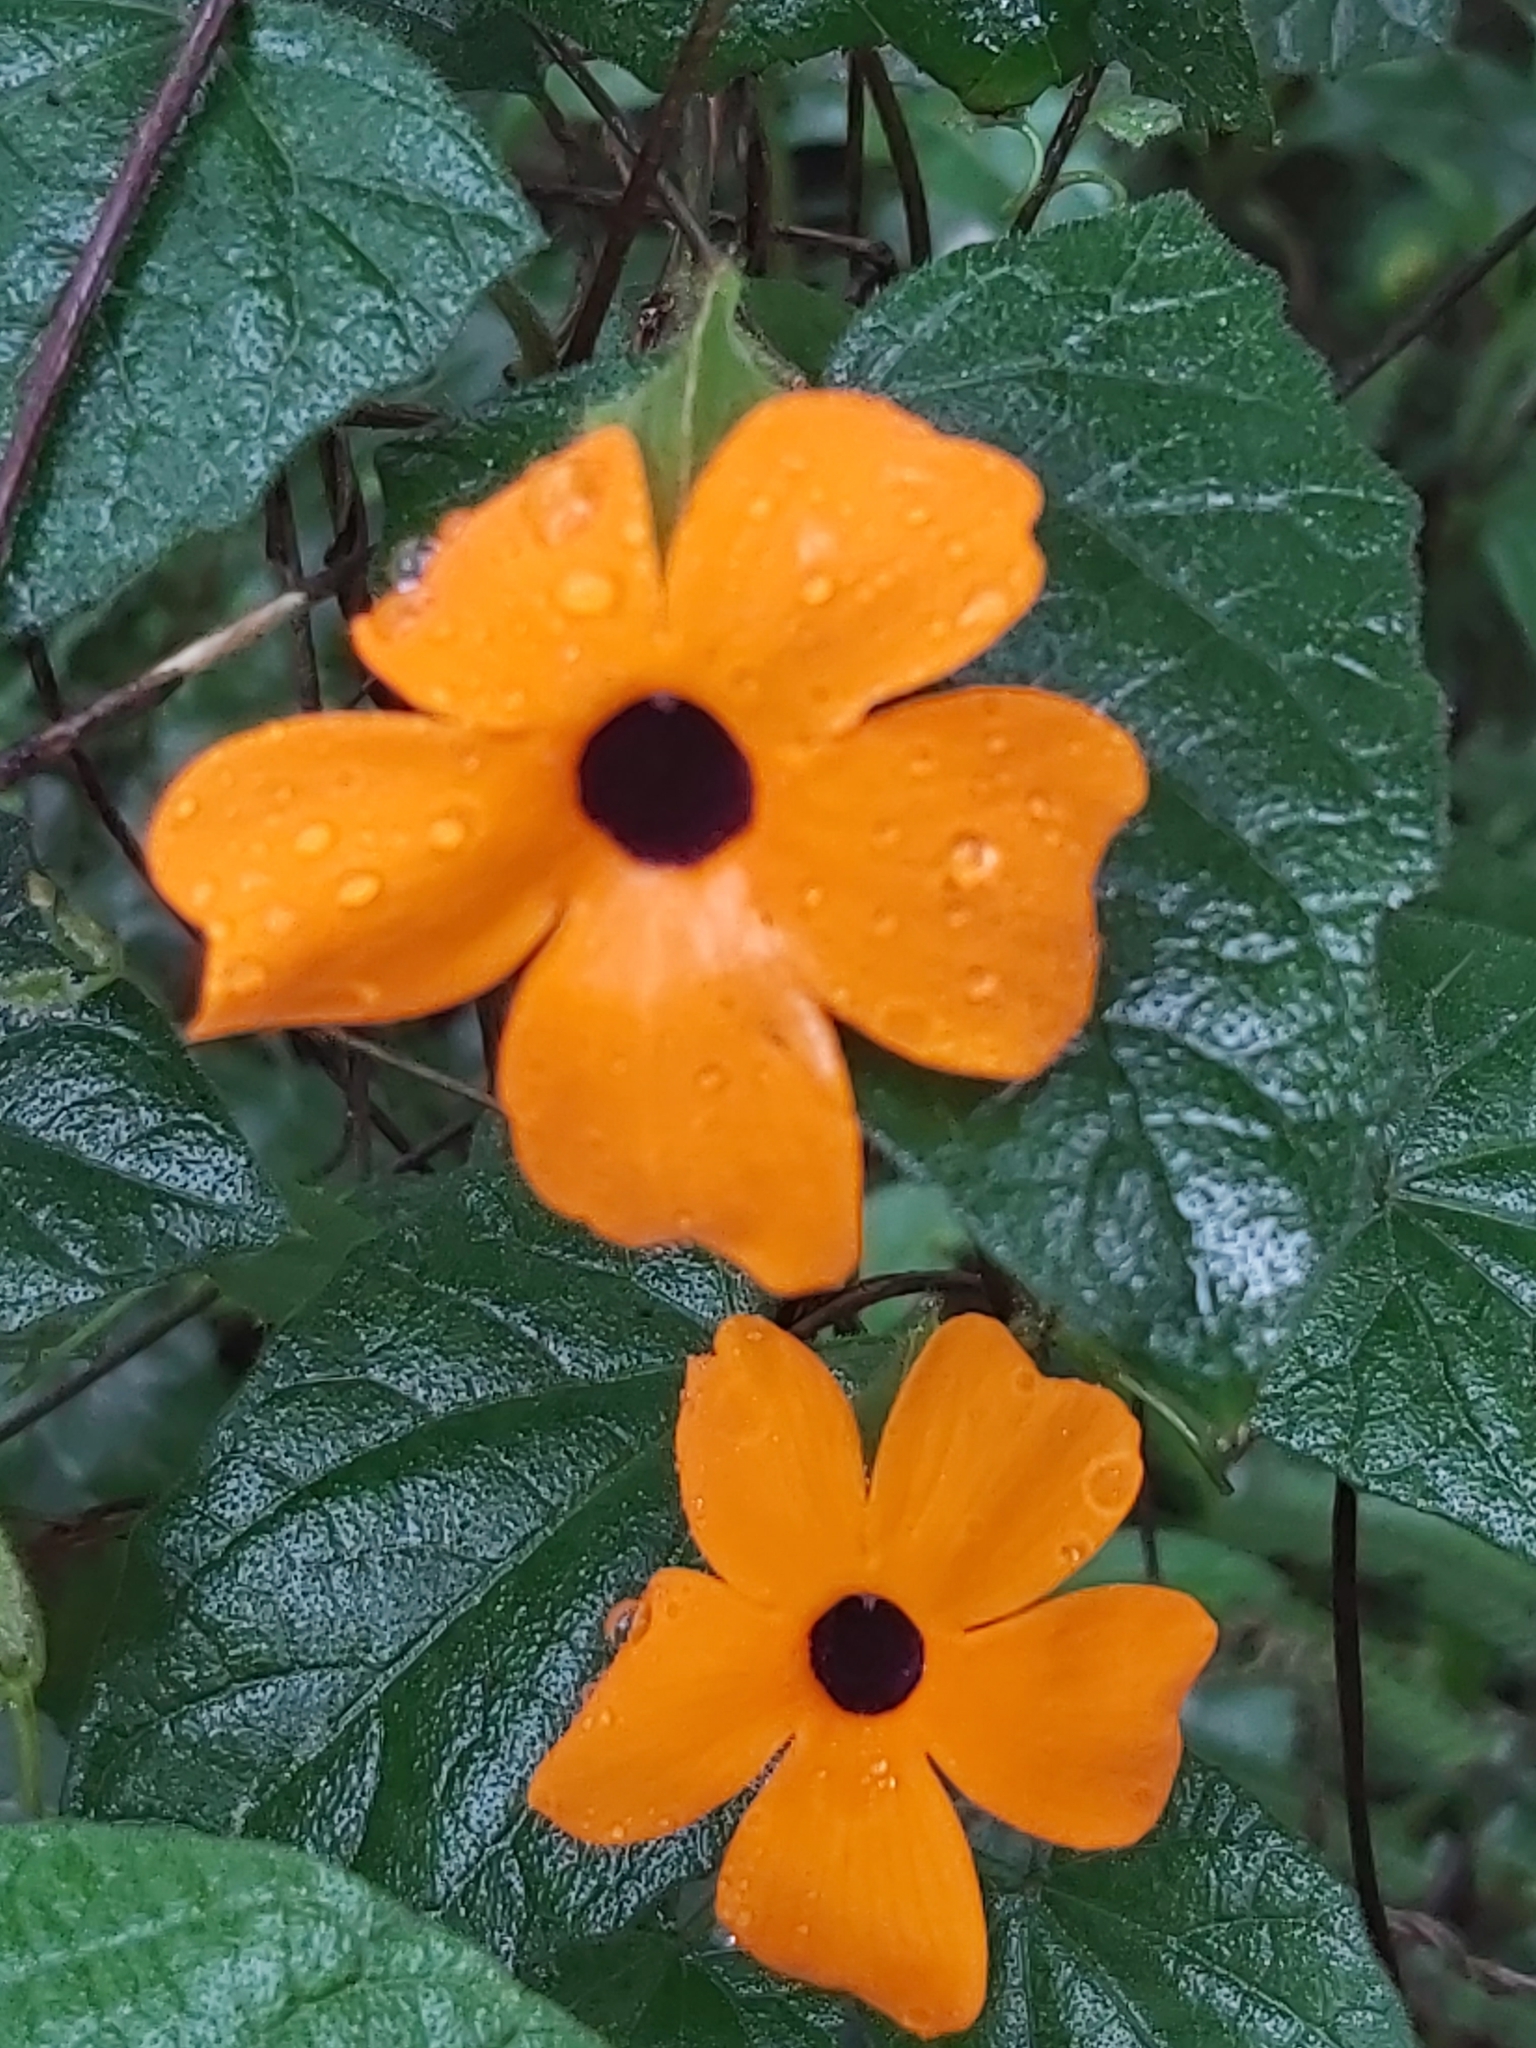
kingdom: Plantae
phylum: Tracheophyta
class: Magnoliopsida
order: Lamiales
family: Acanthaceae
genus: Thunbergia
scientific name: Thunbergia alata
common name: Blackeyed susan vine
